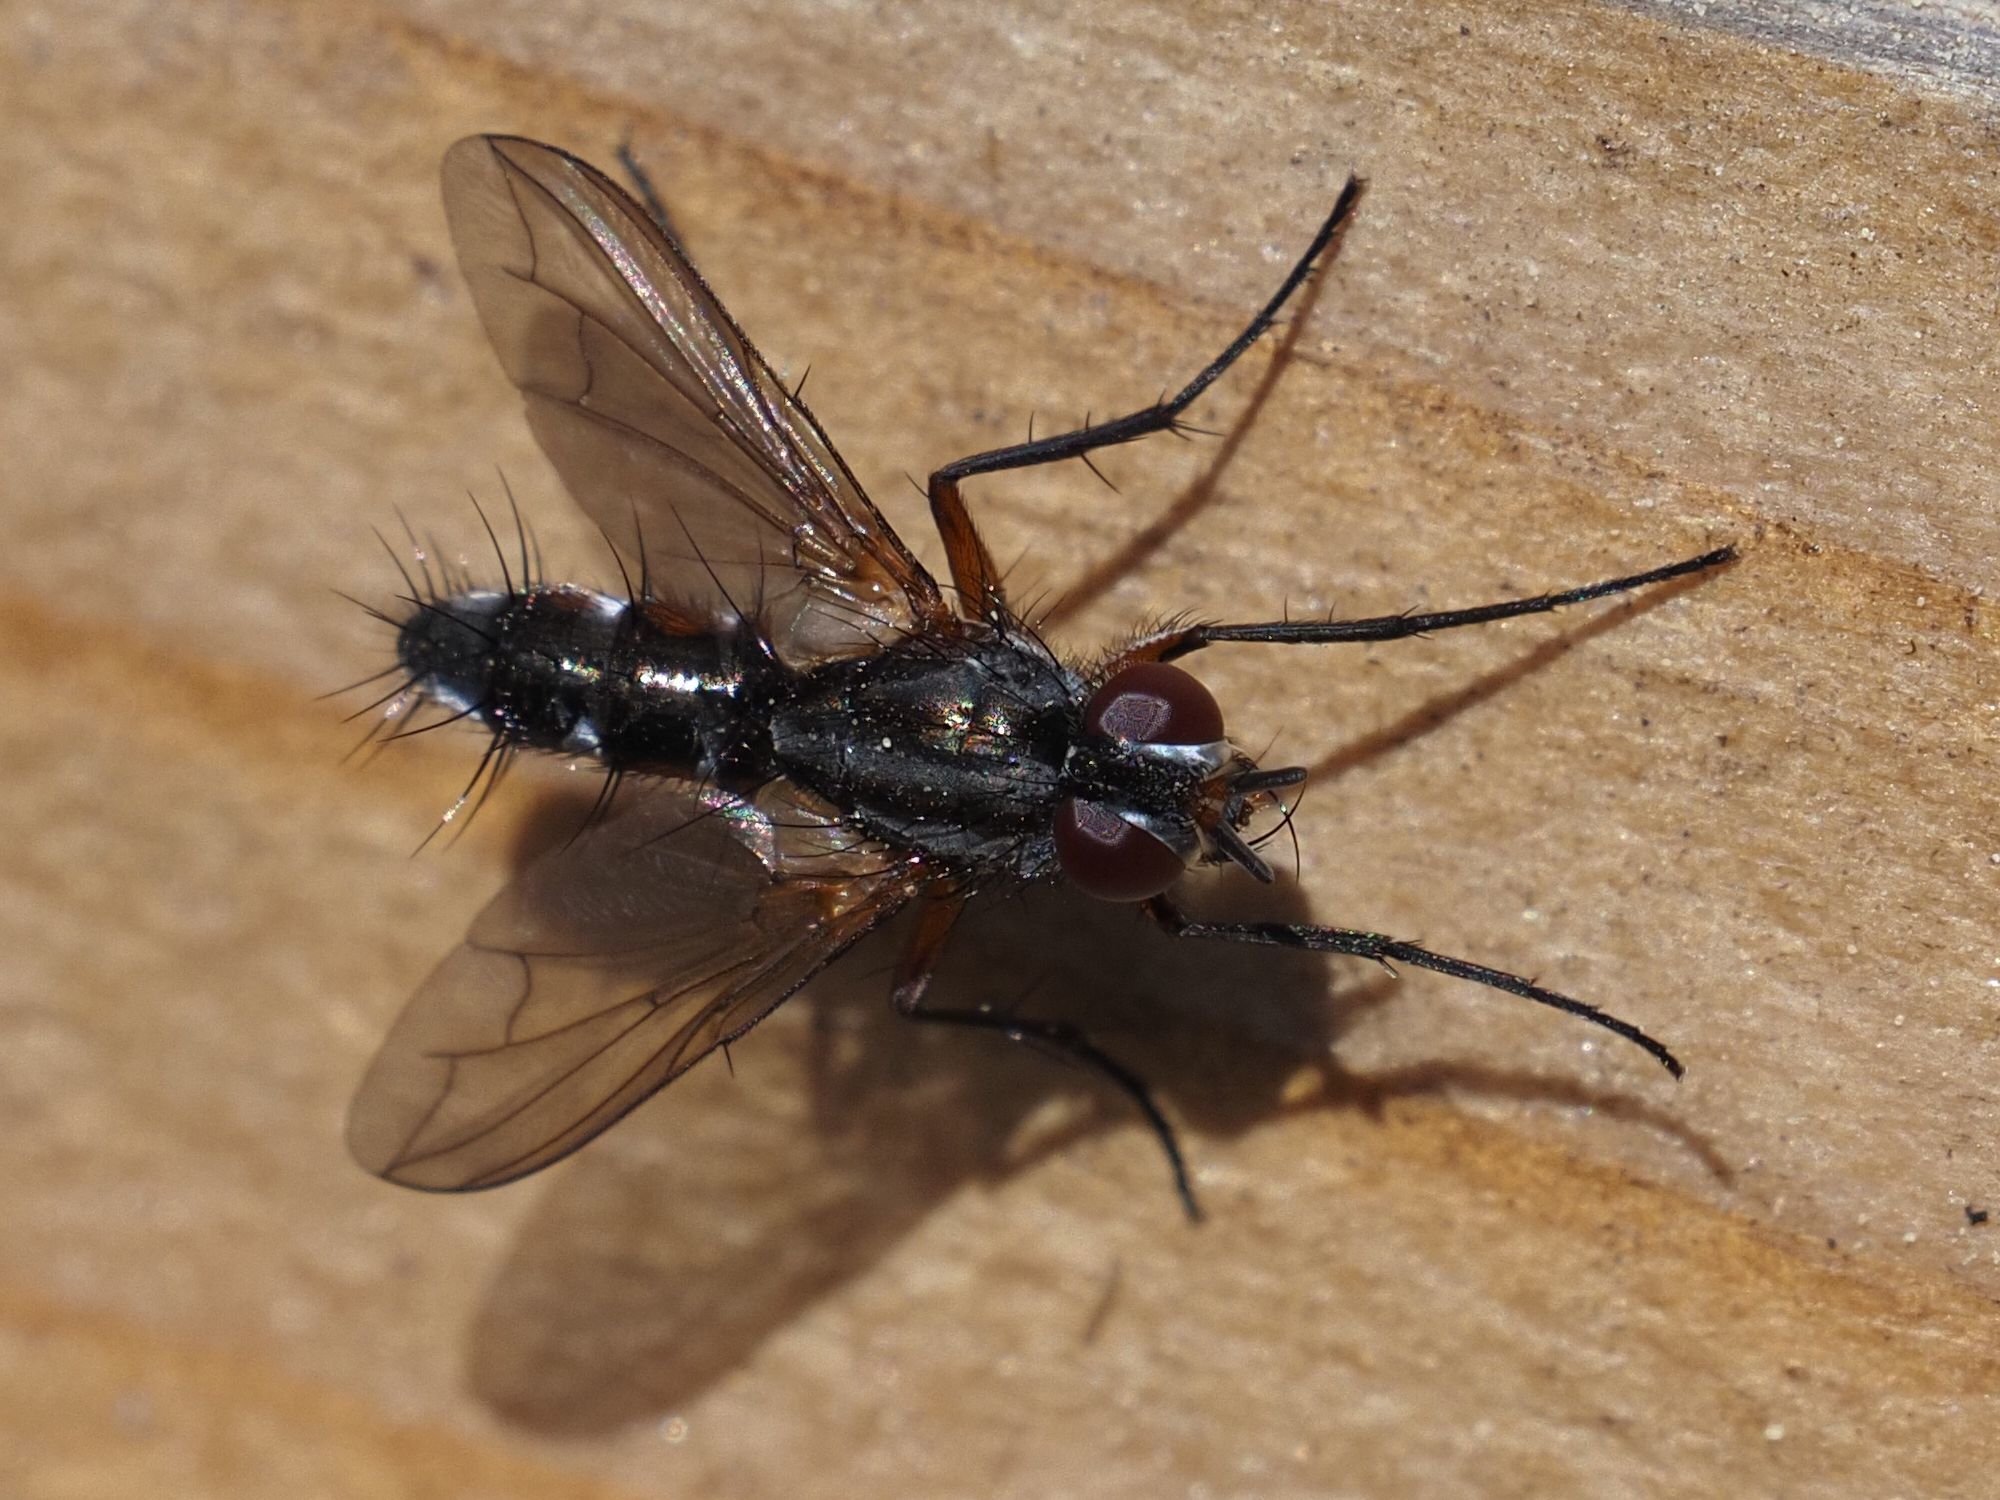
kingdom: Animalia
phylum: Arthropoda
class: Insecta
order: Diptera
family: Tachinidae
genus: Mintho
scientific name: Mintho rufiventris
